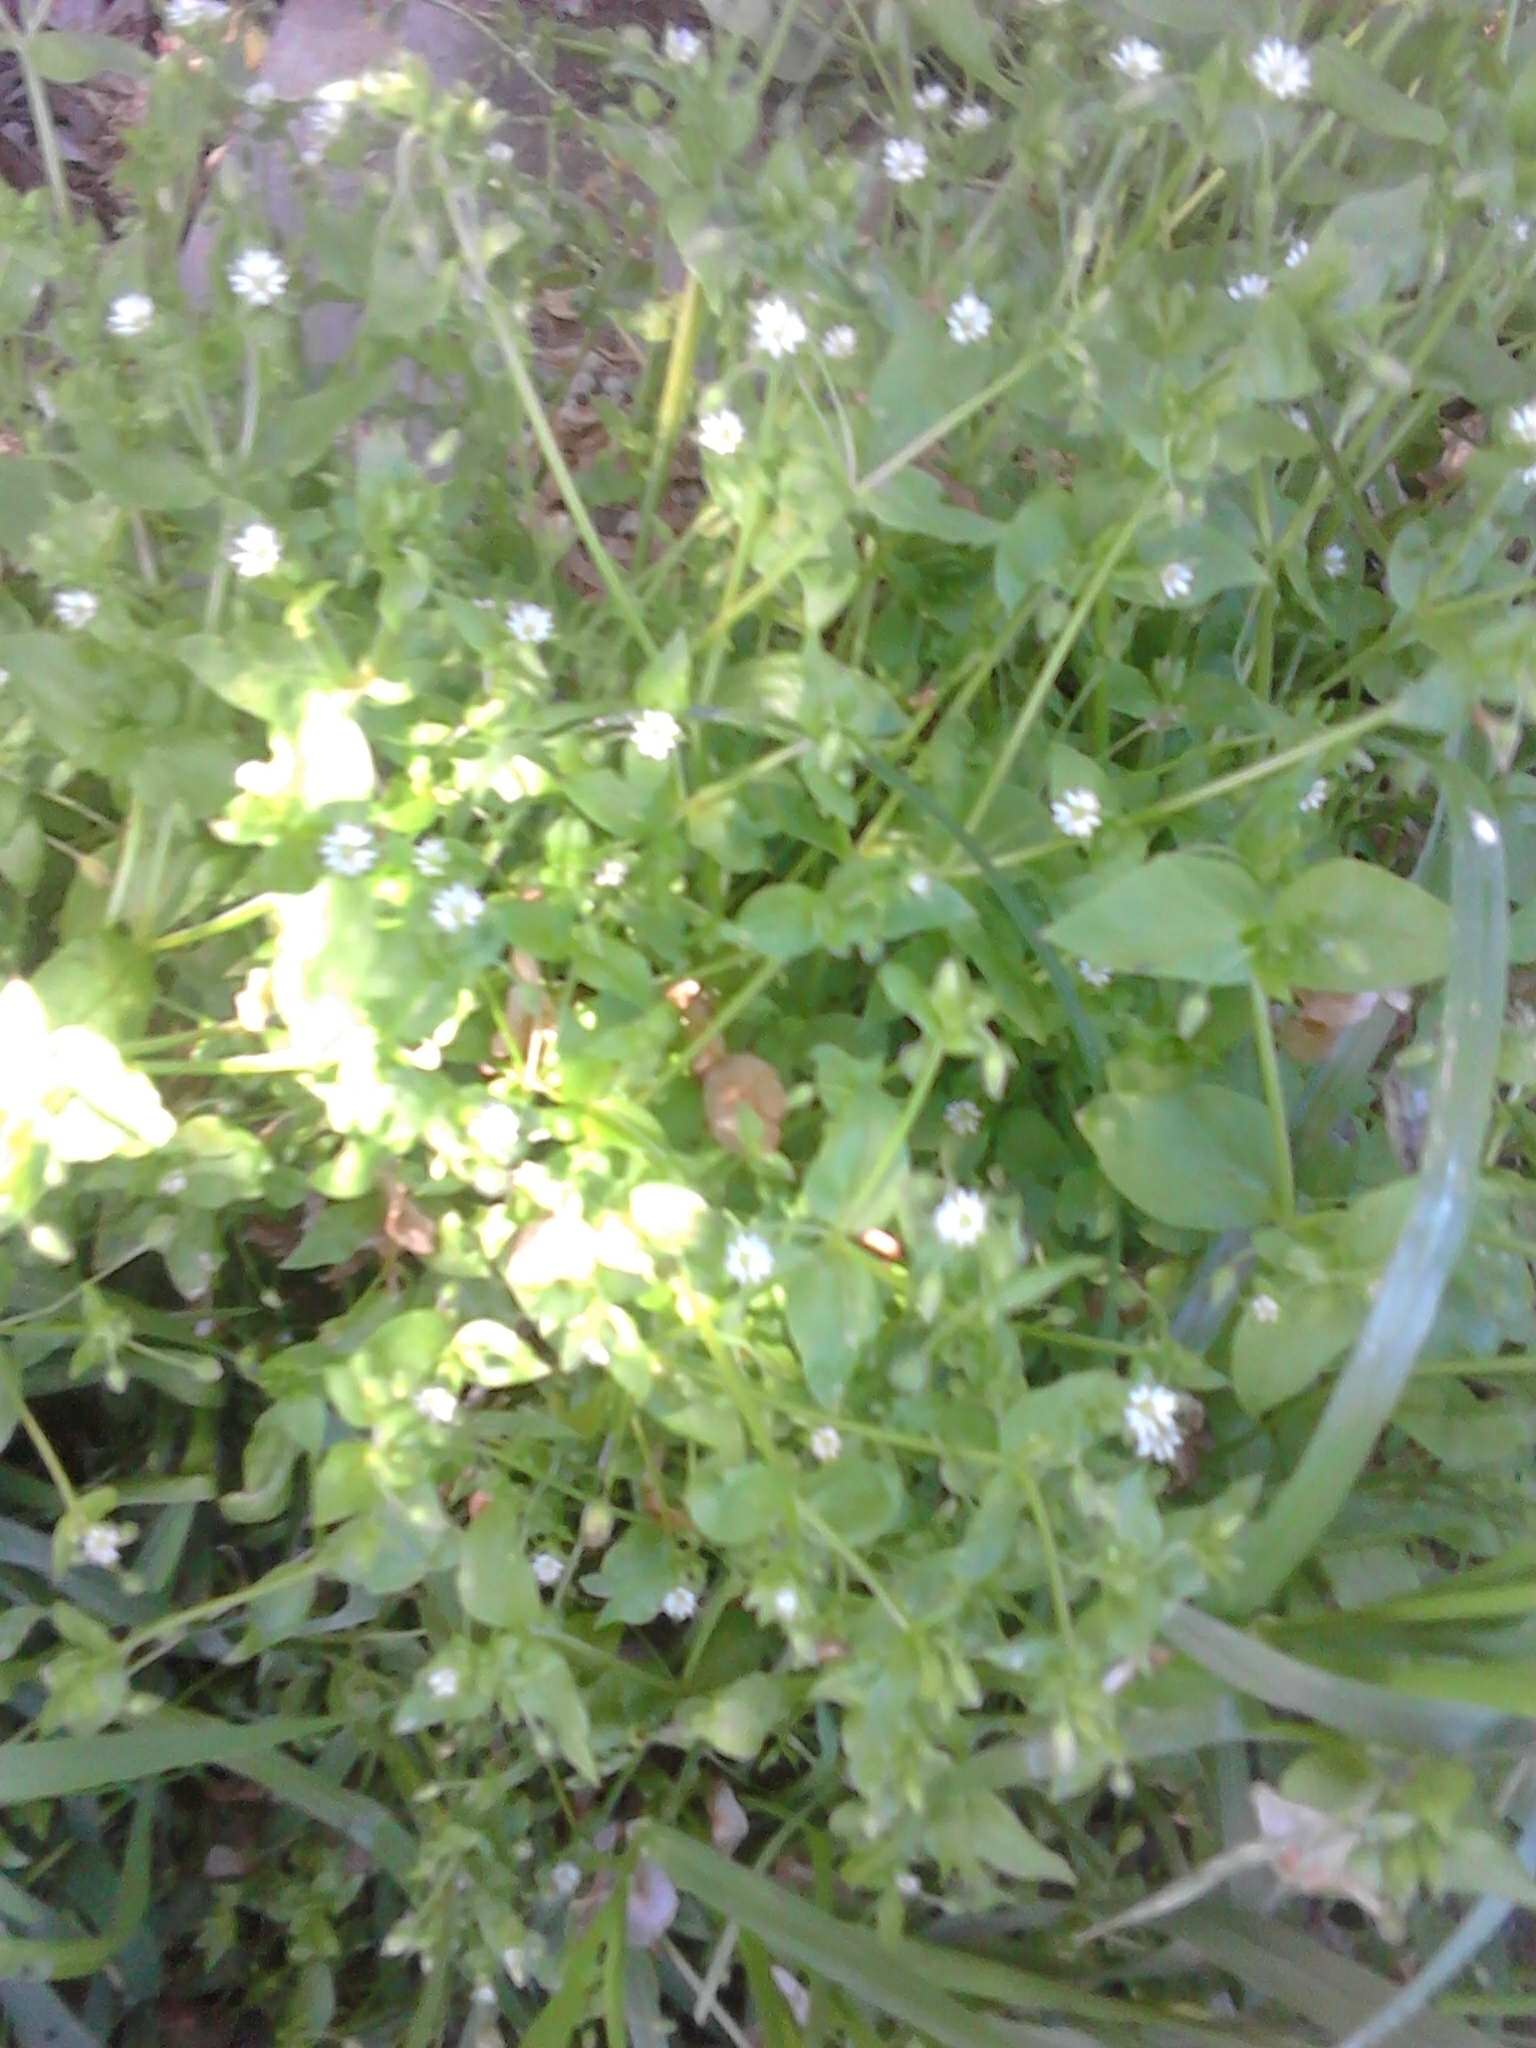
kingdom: Plantae
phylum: Tracheophyta
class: Magnoliopsida
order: Caryophyllales
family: Caryophyllaceae
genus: Stellaria
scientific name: Stellaria media
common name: Common chickweed
